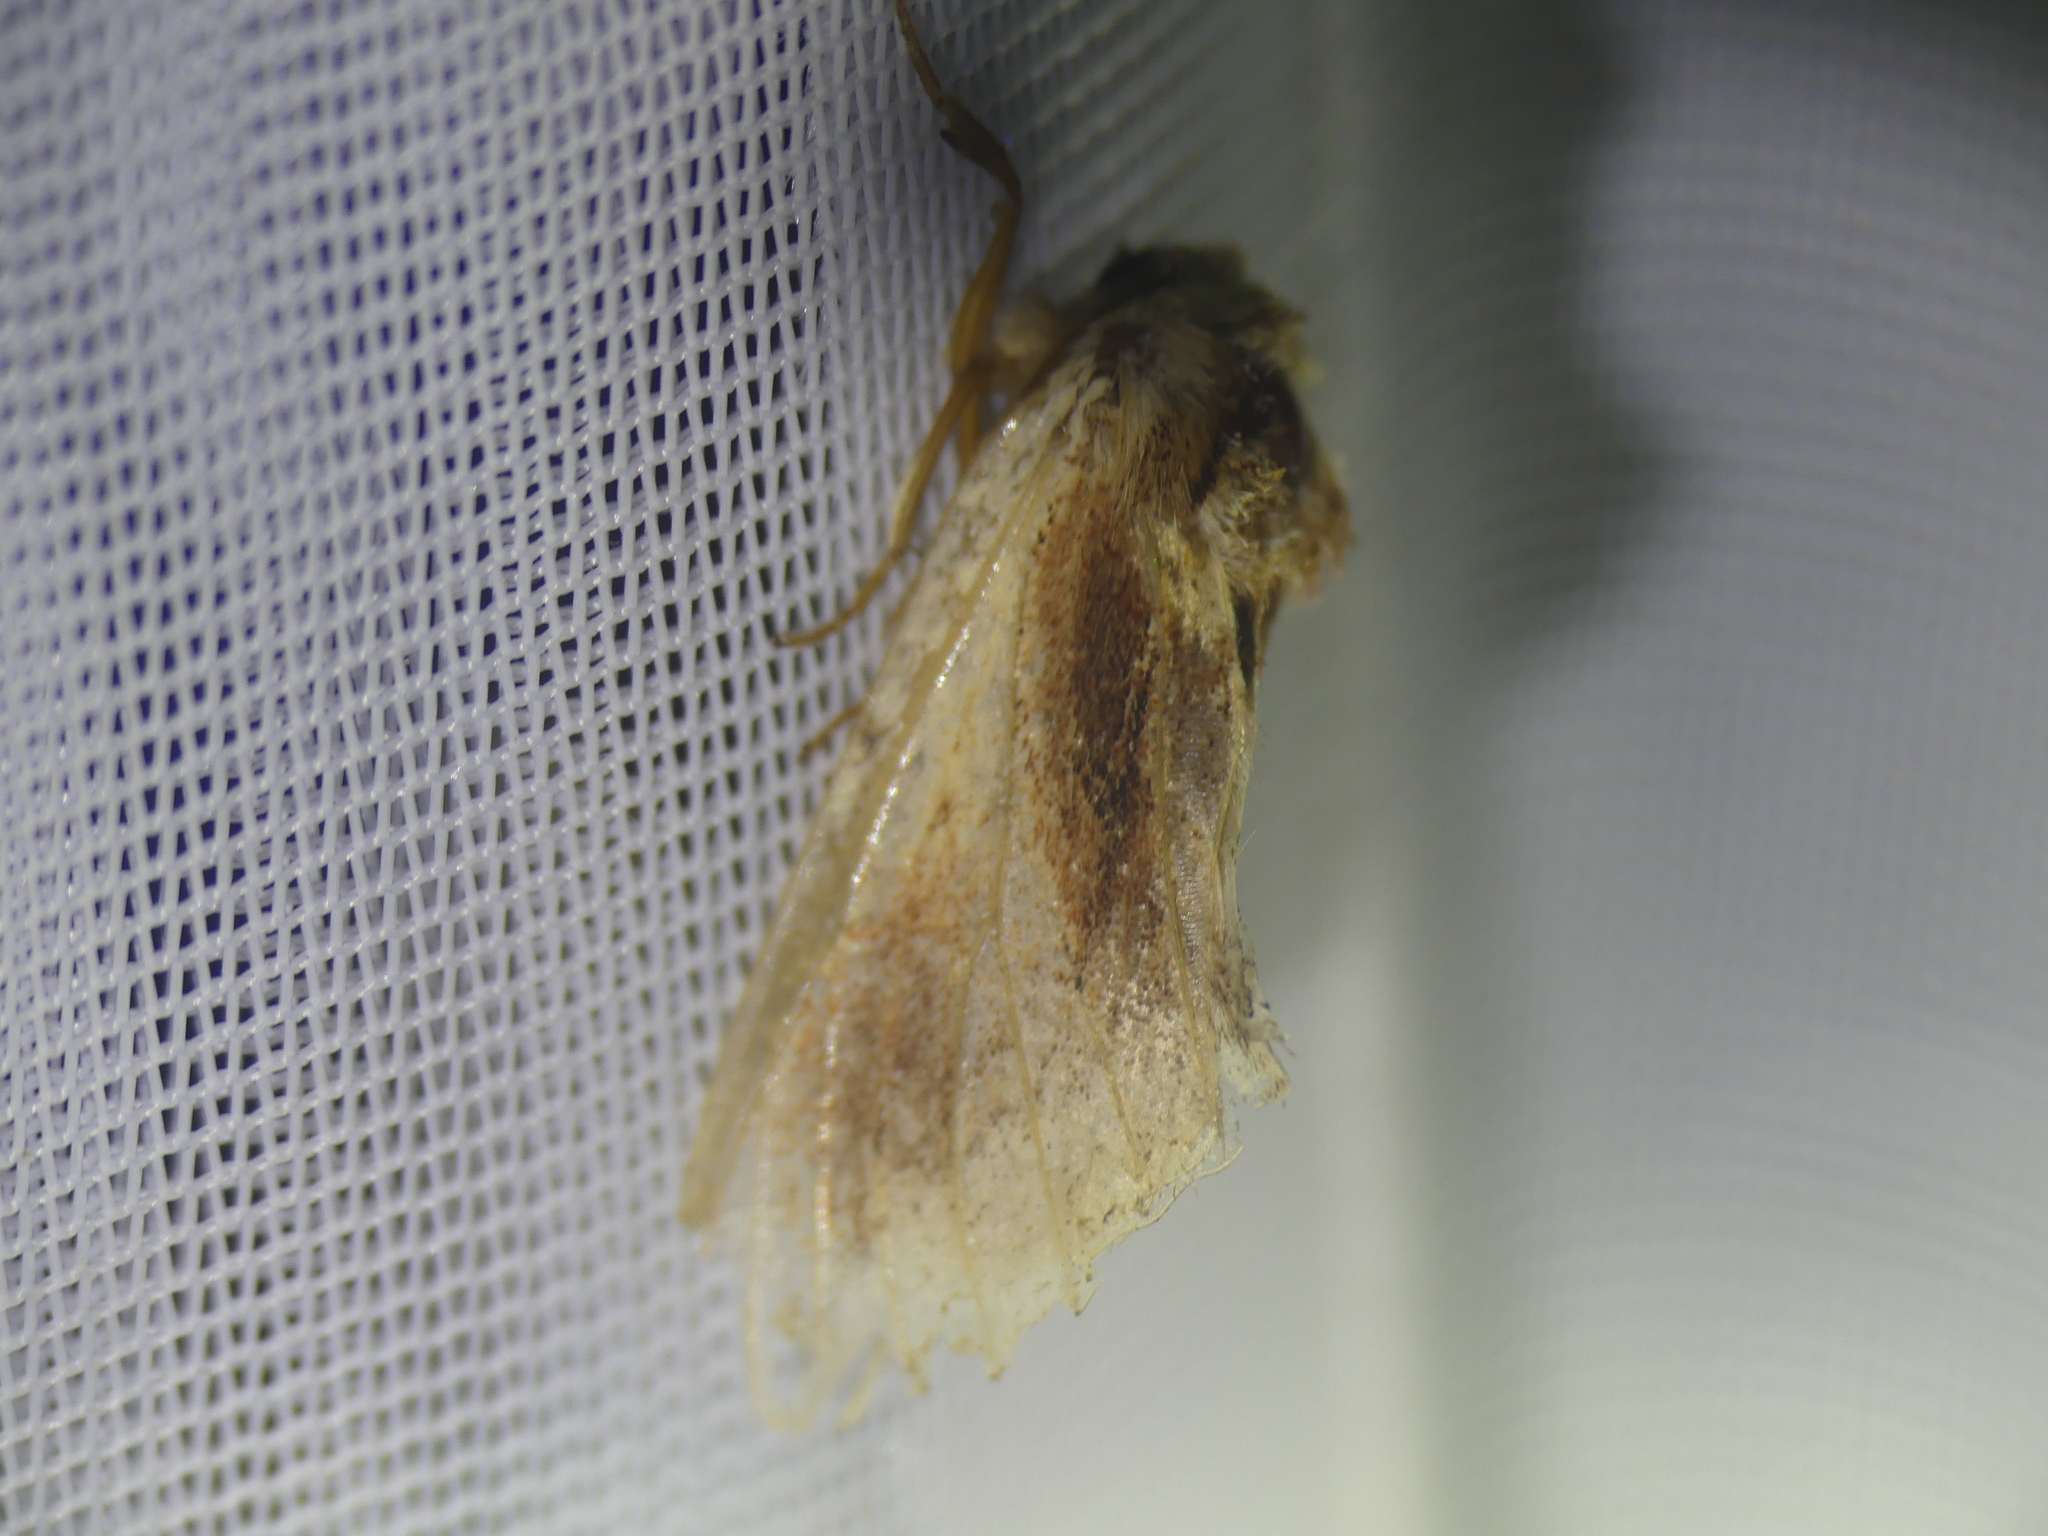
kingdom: Animalia
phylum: Arthropoda
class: Insecta
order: Lepidoptera
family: Notodontidae
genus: Ptilodon
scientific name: Ptilodon cucullina
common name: Maple prominent
